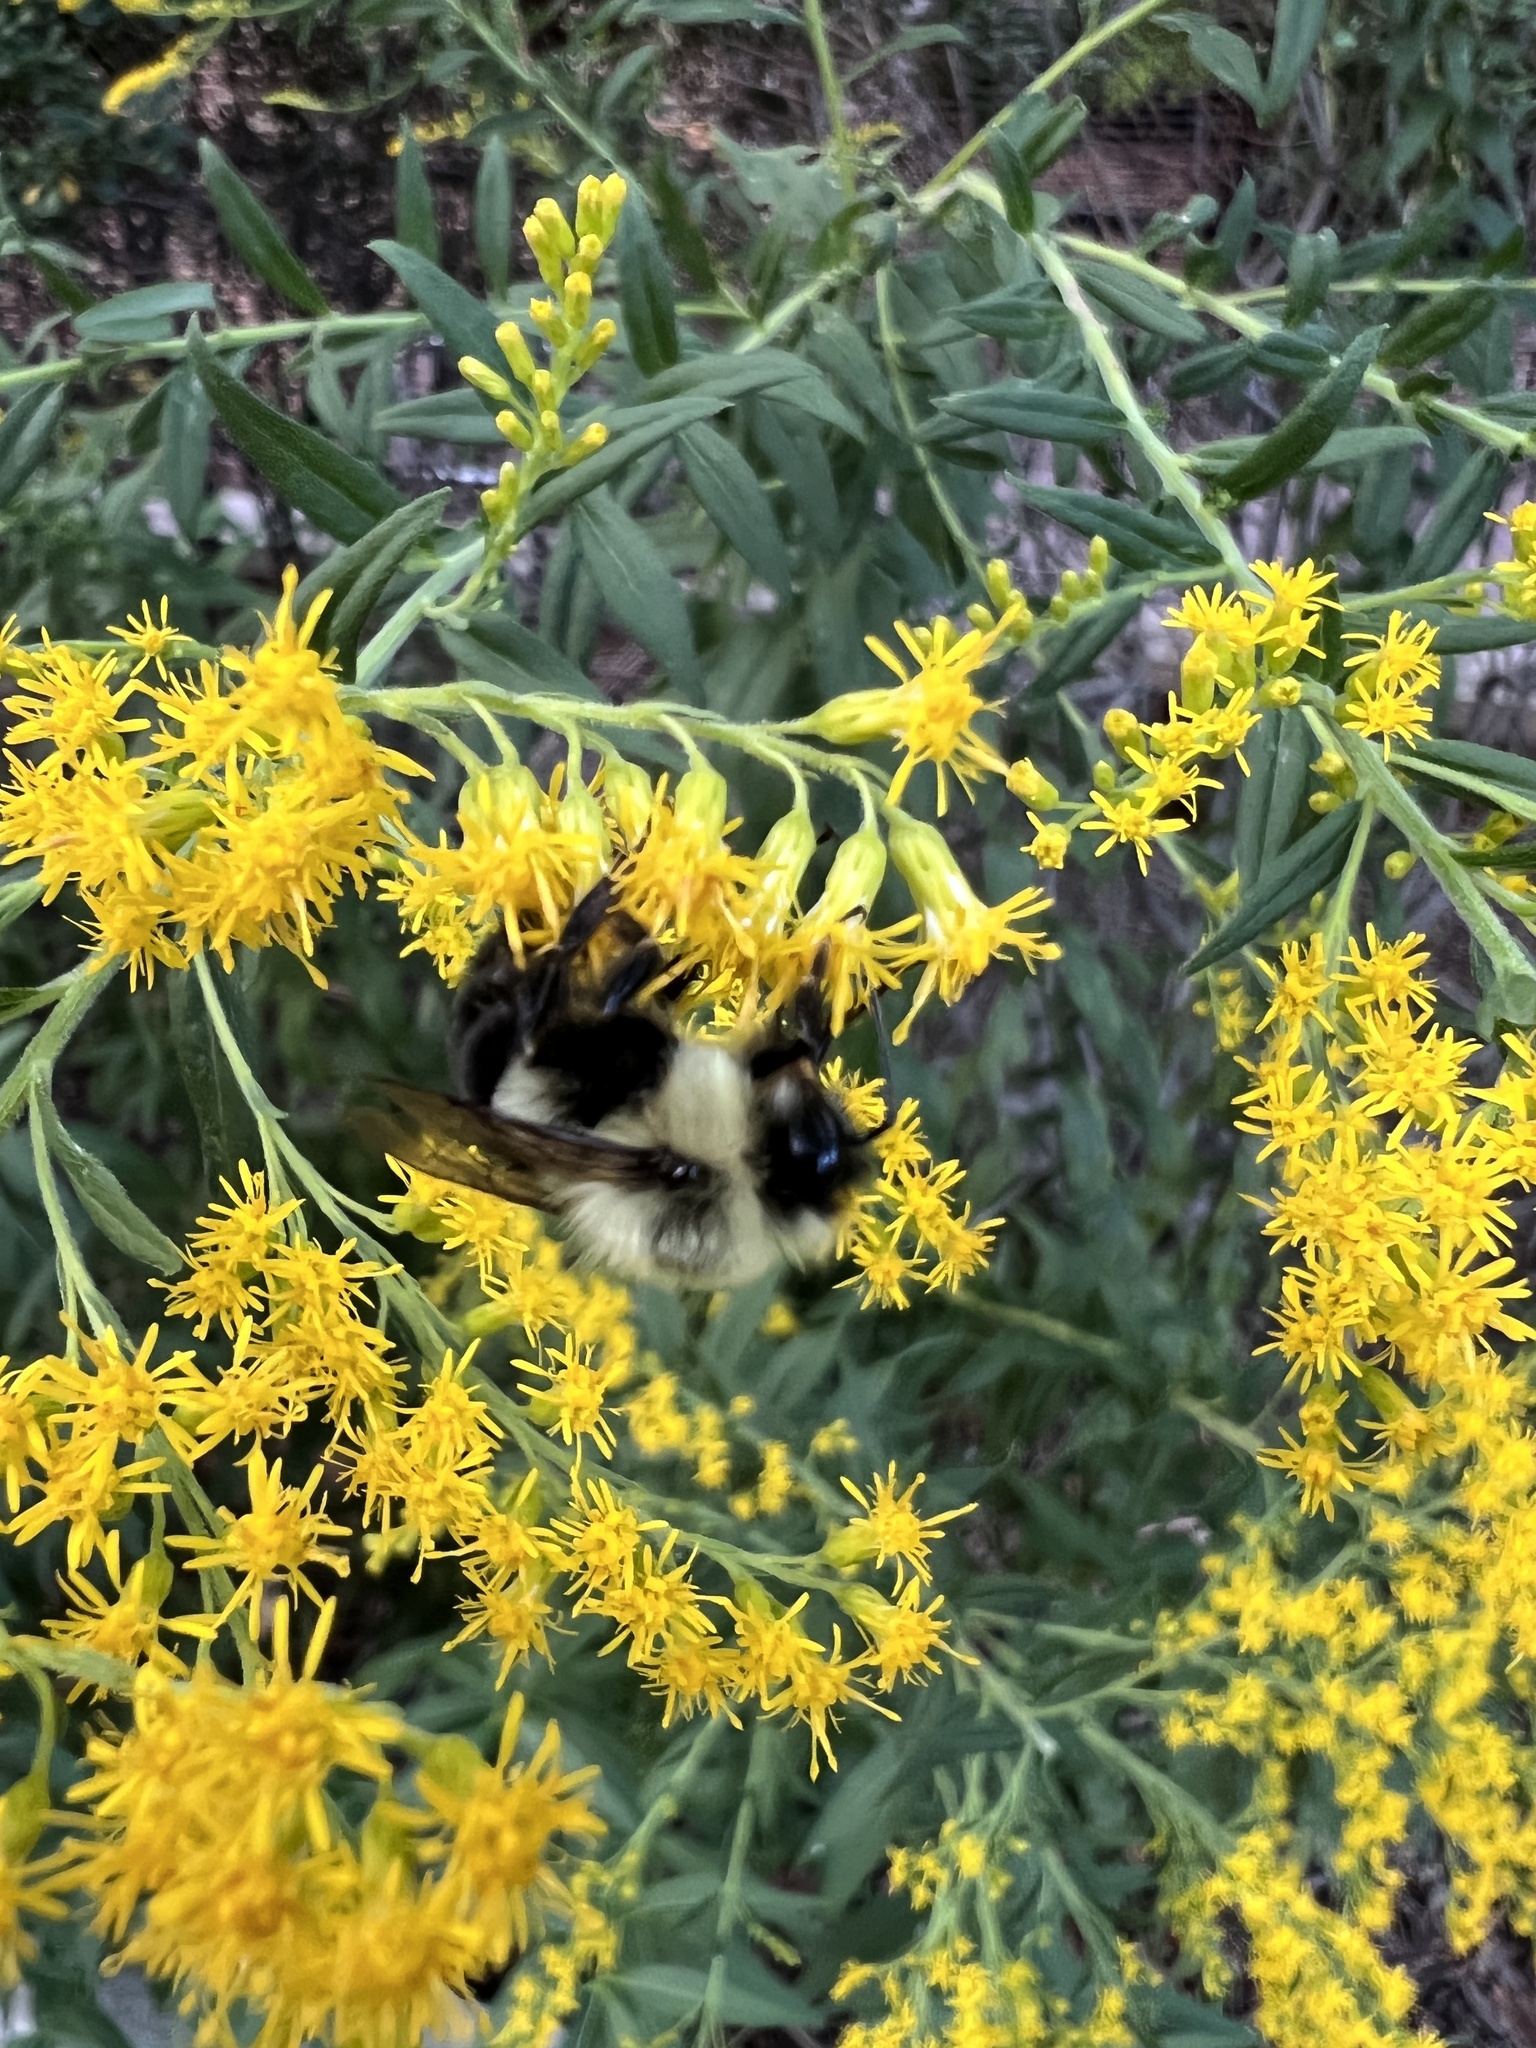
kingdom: Animalia
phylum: Arthropoda
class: Insecta
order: Hymenoptera
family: Apidae
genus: Bombus
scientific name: Bombus impatiens
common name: Common eastern bumble bee
